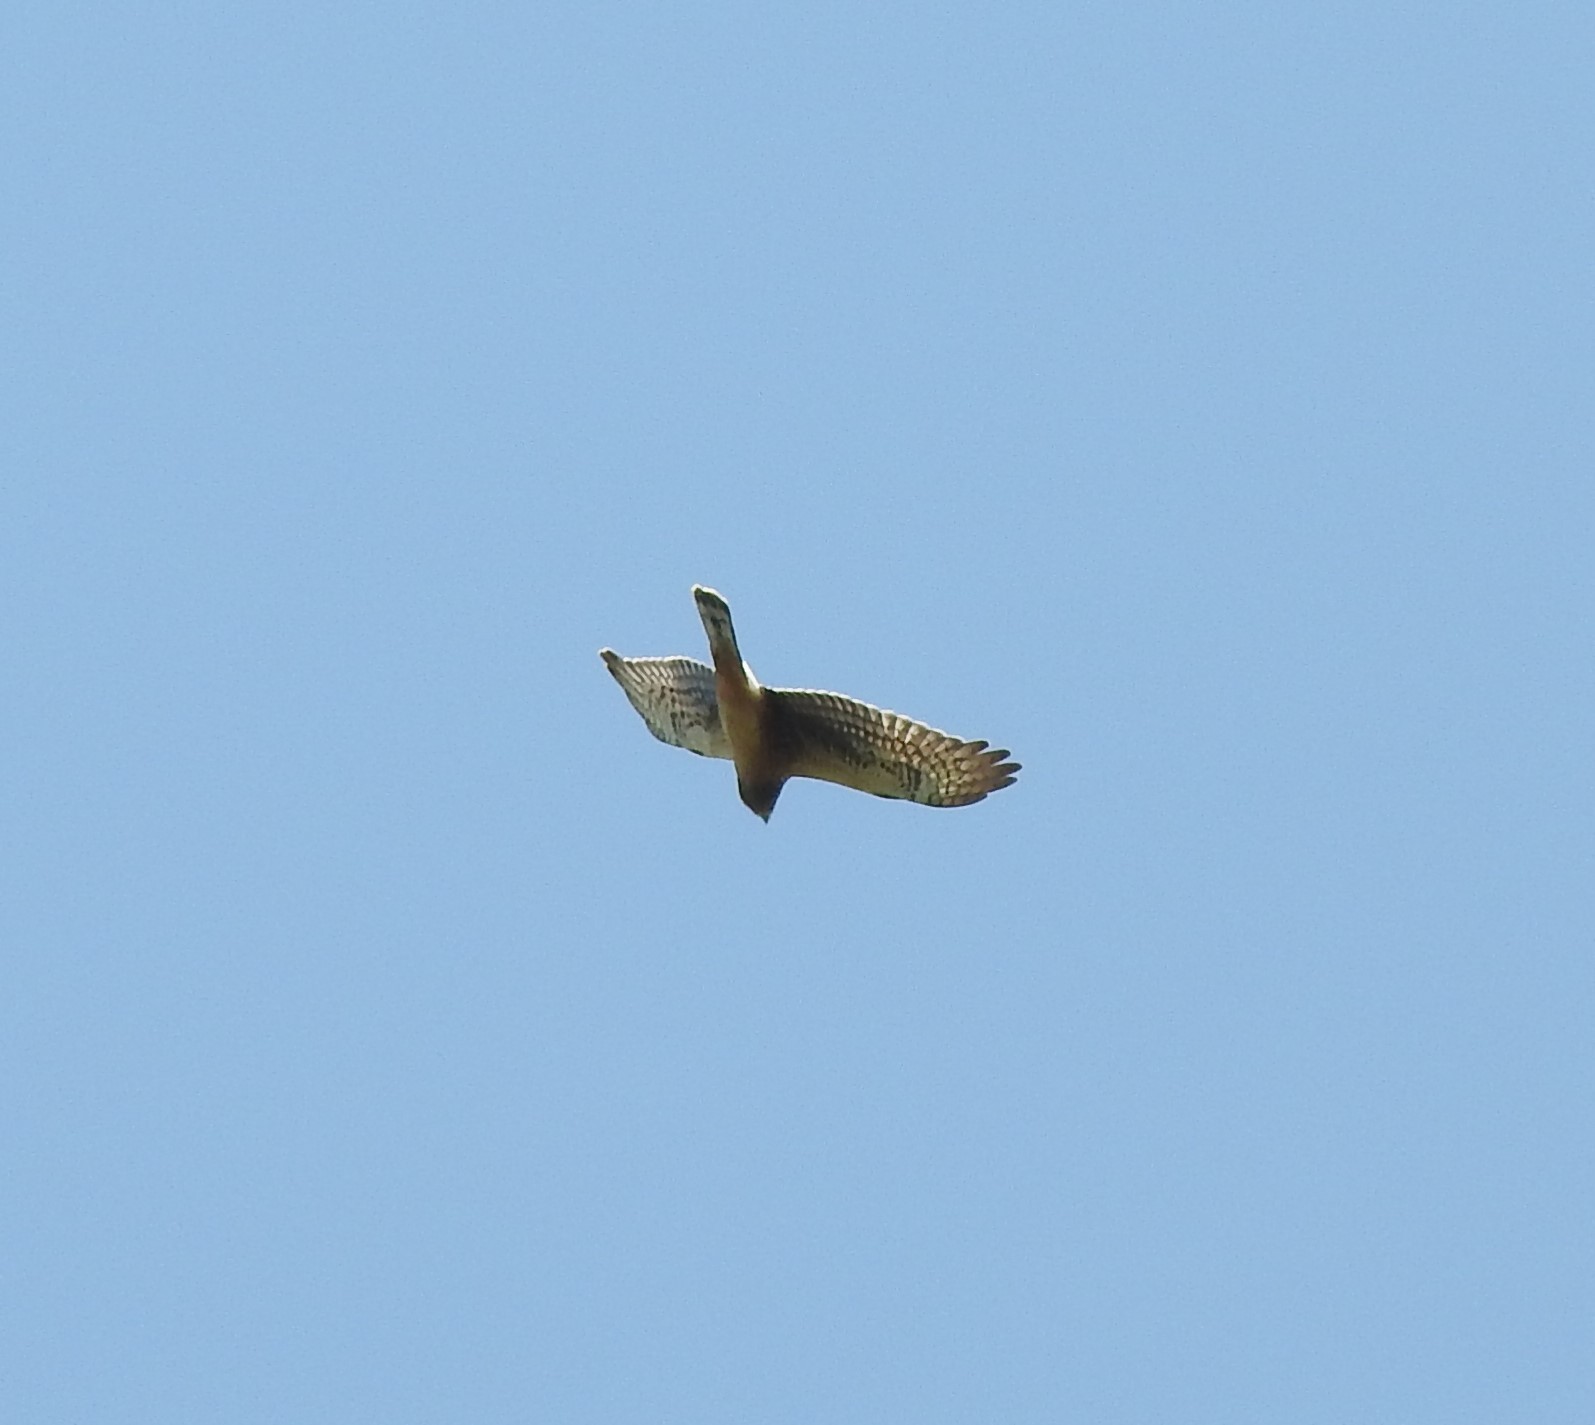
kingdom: Animalia
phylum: Chordata
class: Aves
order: Accipitriformes
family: Accipitridae
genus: Circus
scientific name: Circus cyaneus
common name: Hen harrier
